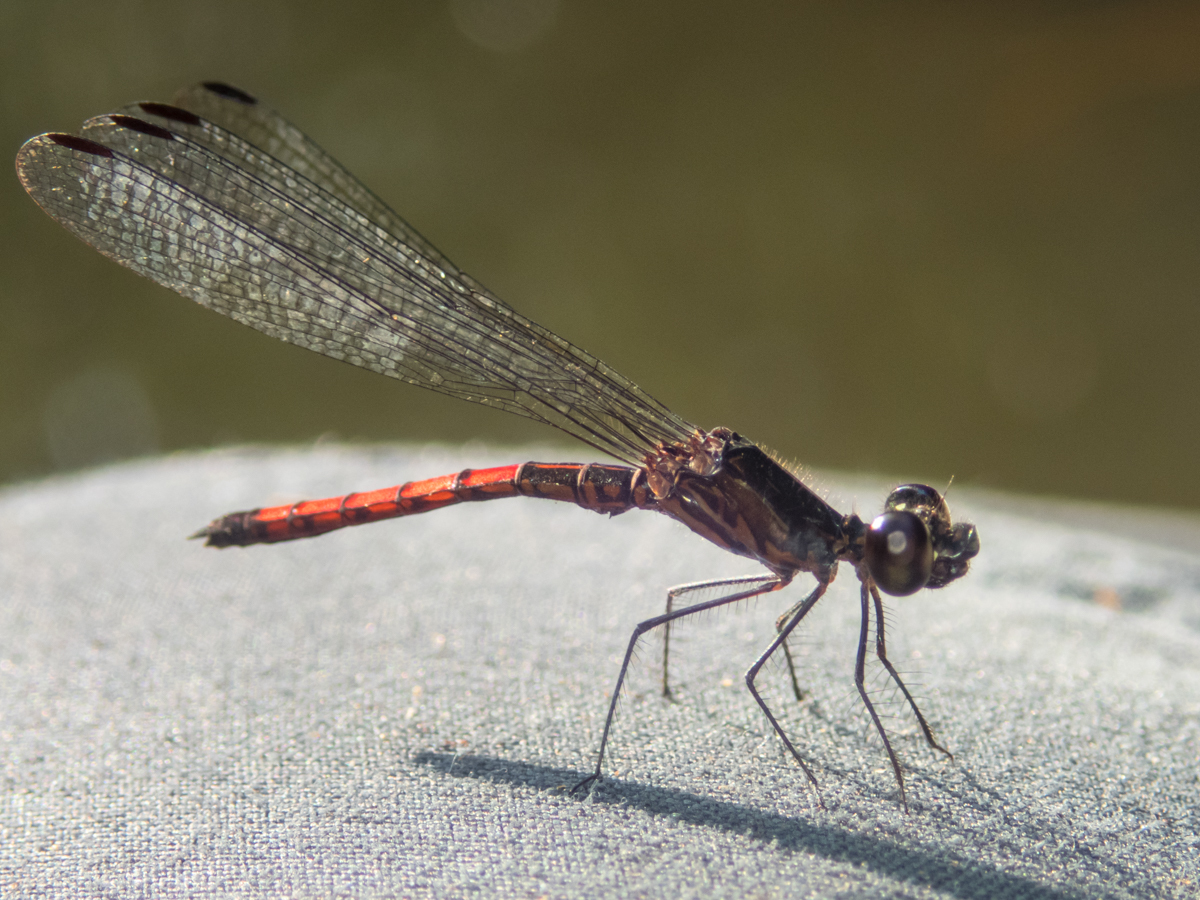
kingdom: Animalia
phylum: Arthropoda
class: Insecta
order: Odonata
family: Chlorocyphidae
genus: Libellago
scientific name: Libellago hyalina
